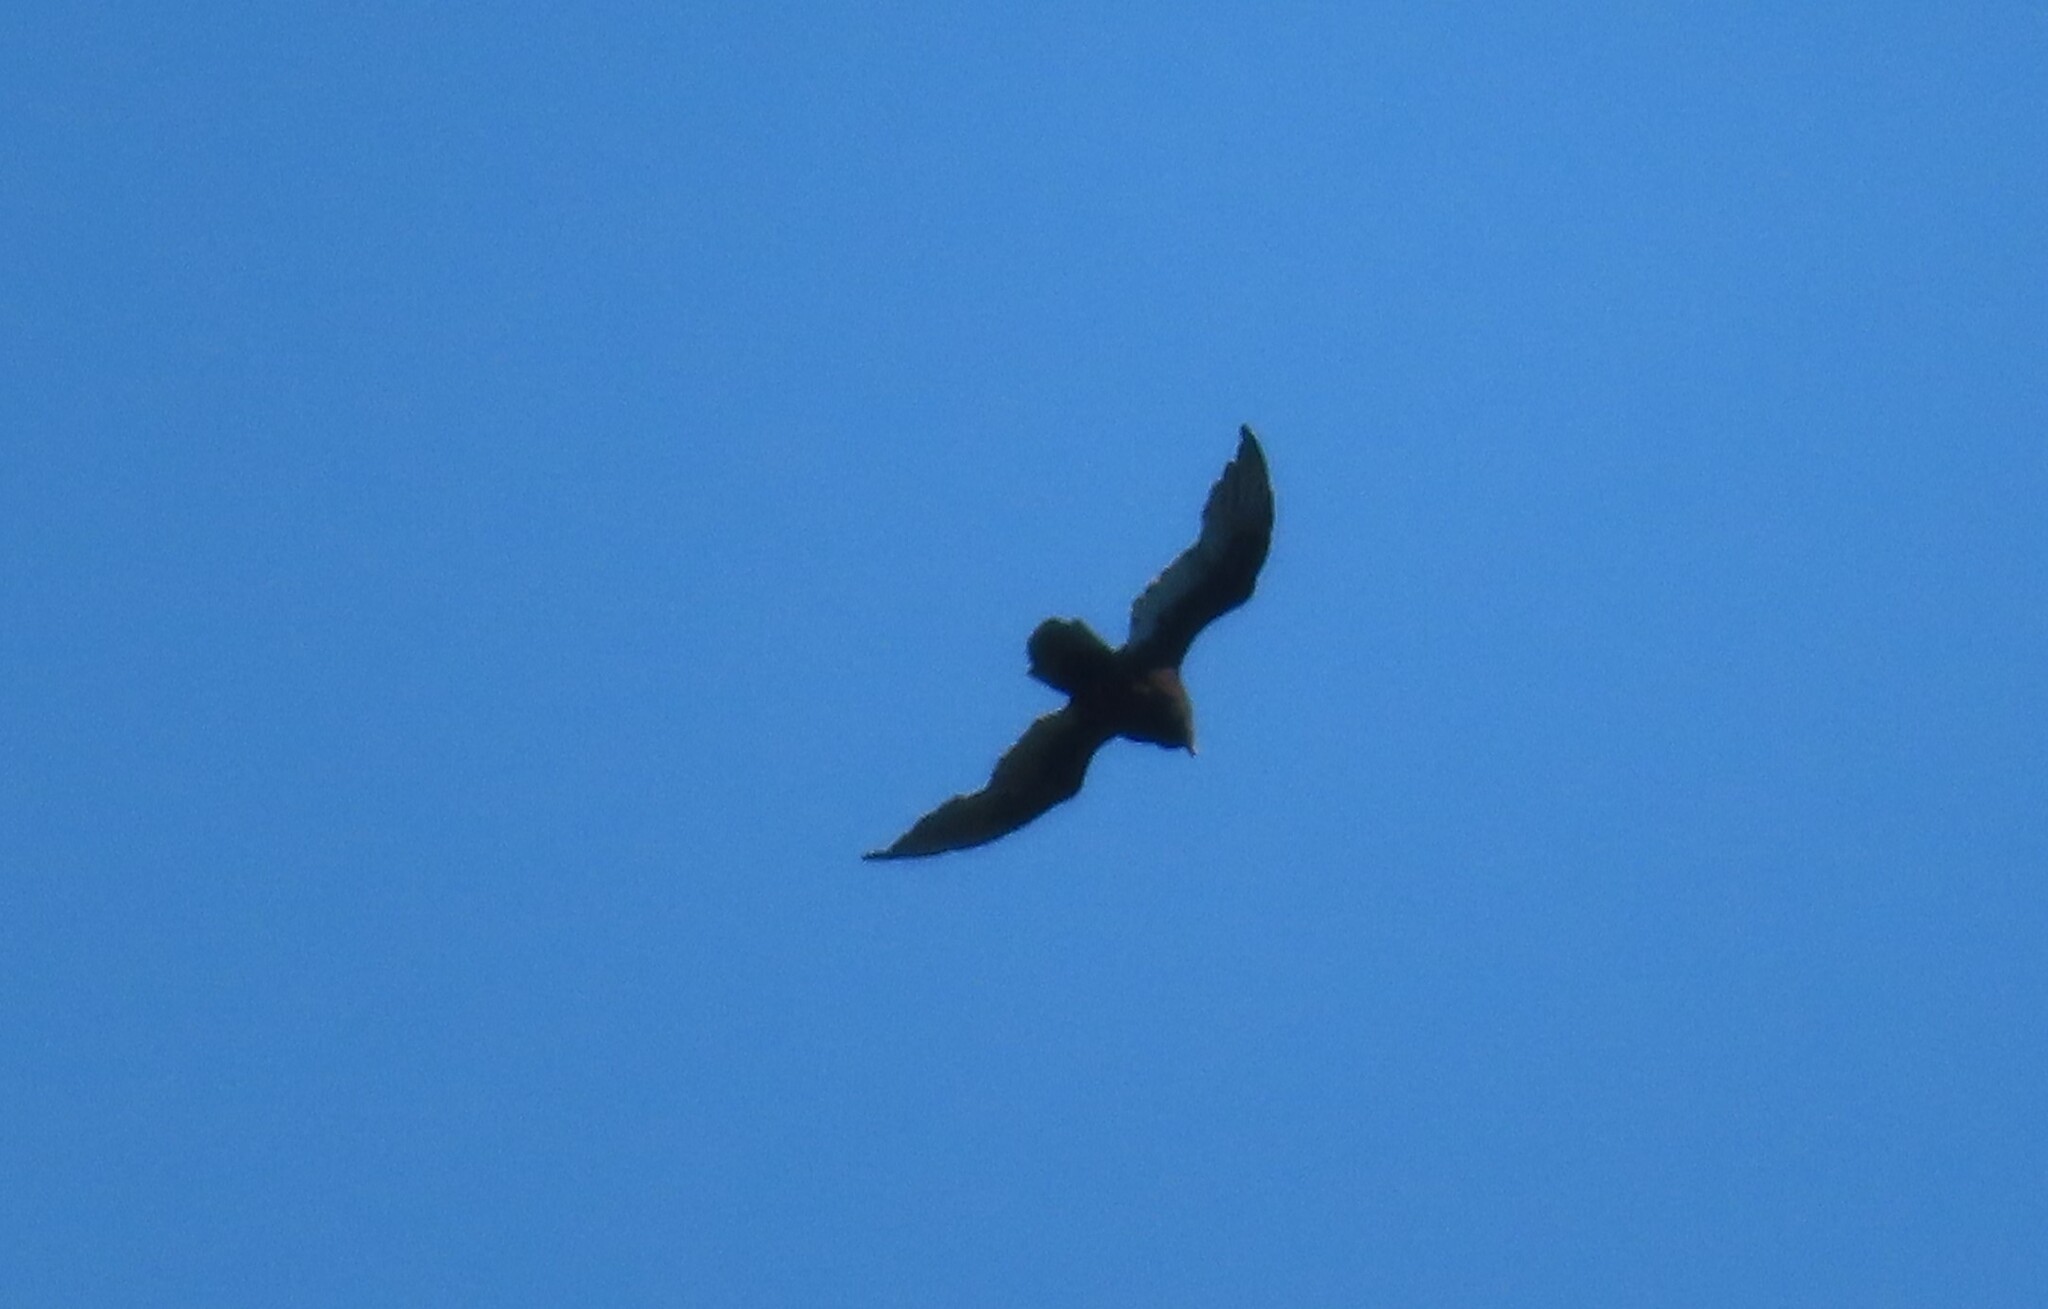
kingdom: Animalia
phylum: Chordata
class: Aves
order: Accipitriformes
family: Cathartidae
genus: Cathartes
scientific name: Cathartes aura
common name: Turkey vulture
